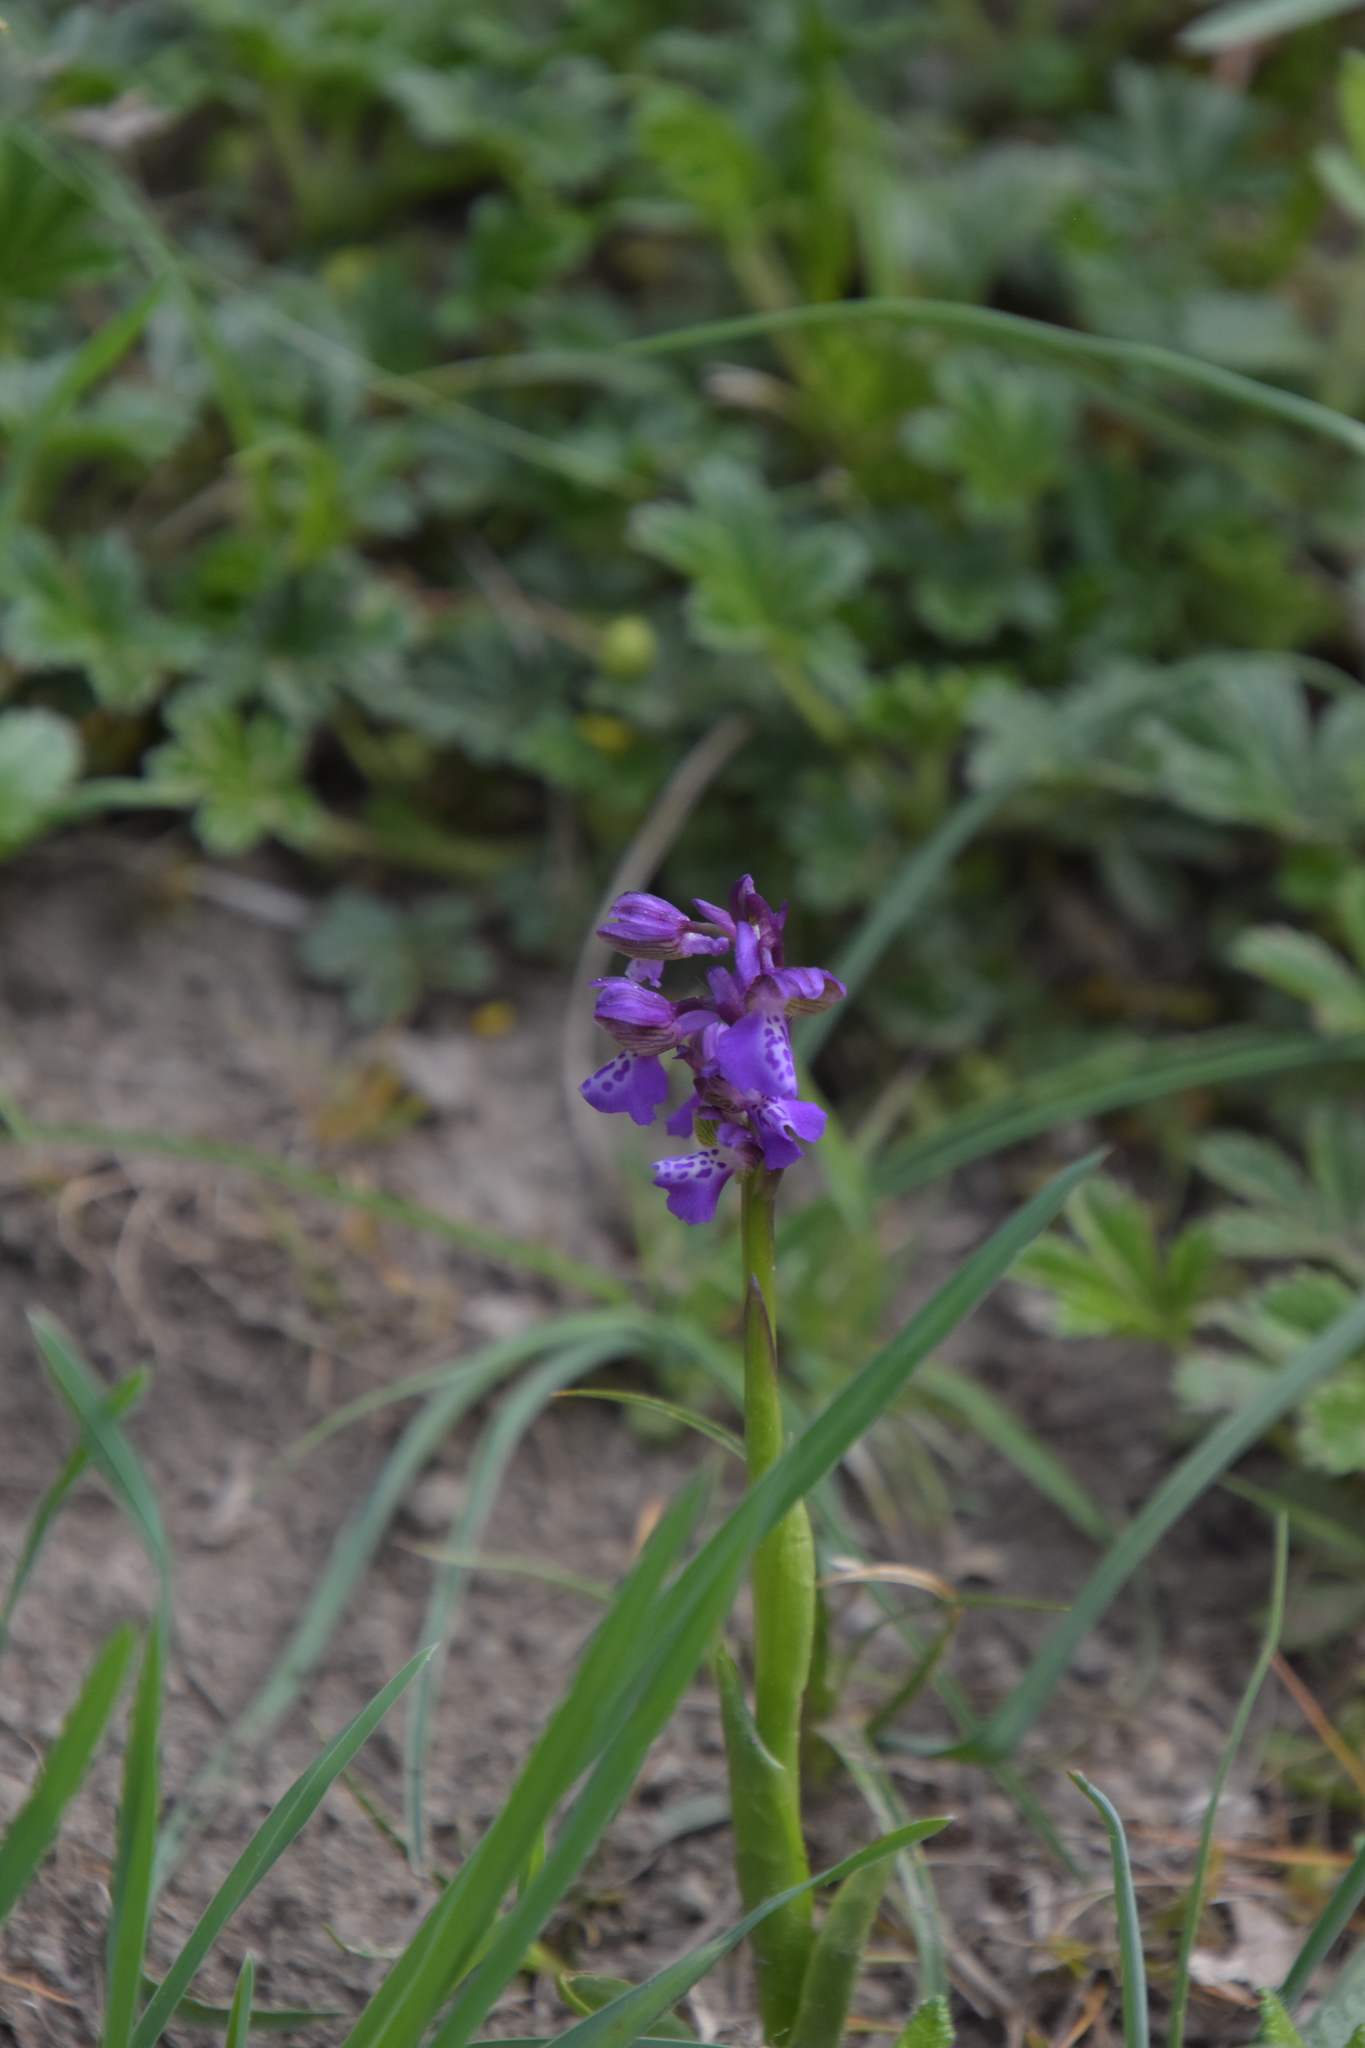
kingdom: Plantae
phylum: Tracheophyta
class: Liliopsida
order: Asparagales
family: Orchidaceae
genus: Anacamptis
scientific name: Anacamptis morio
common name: Green-winged orchid
